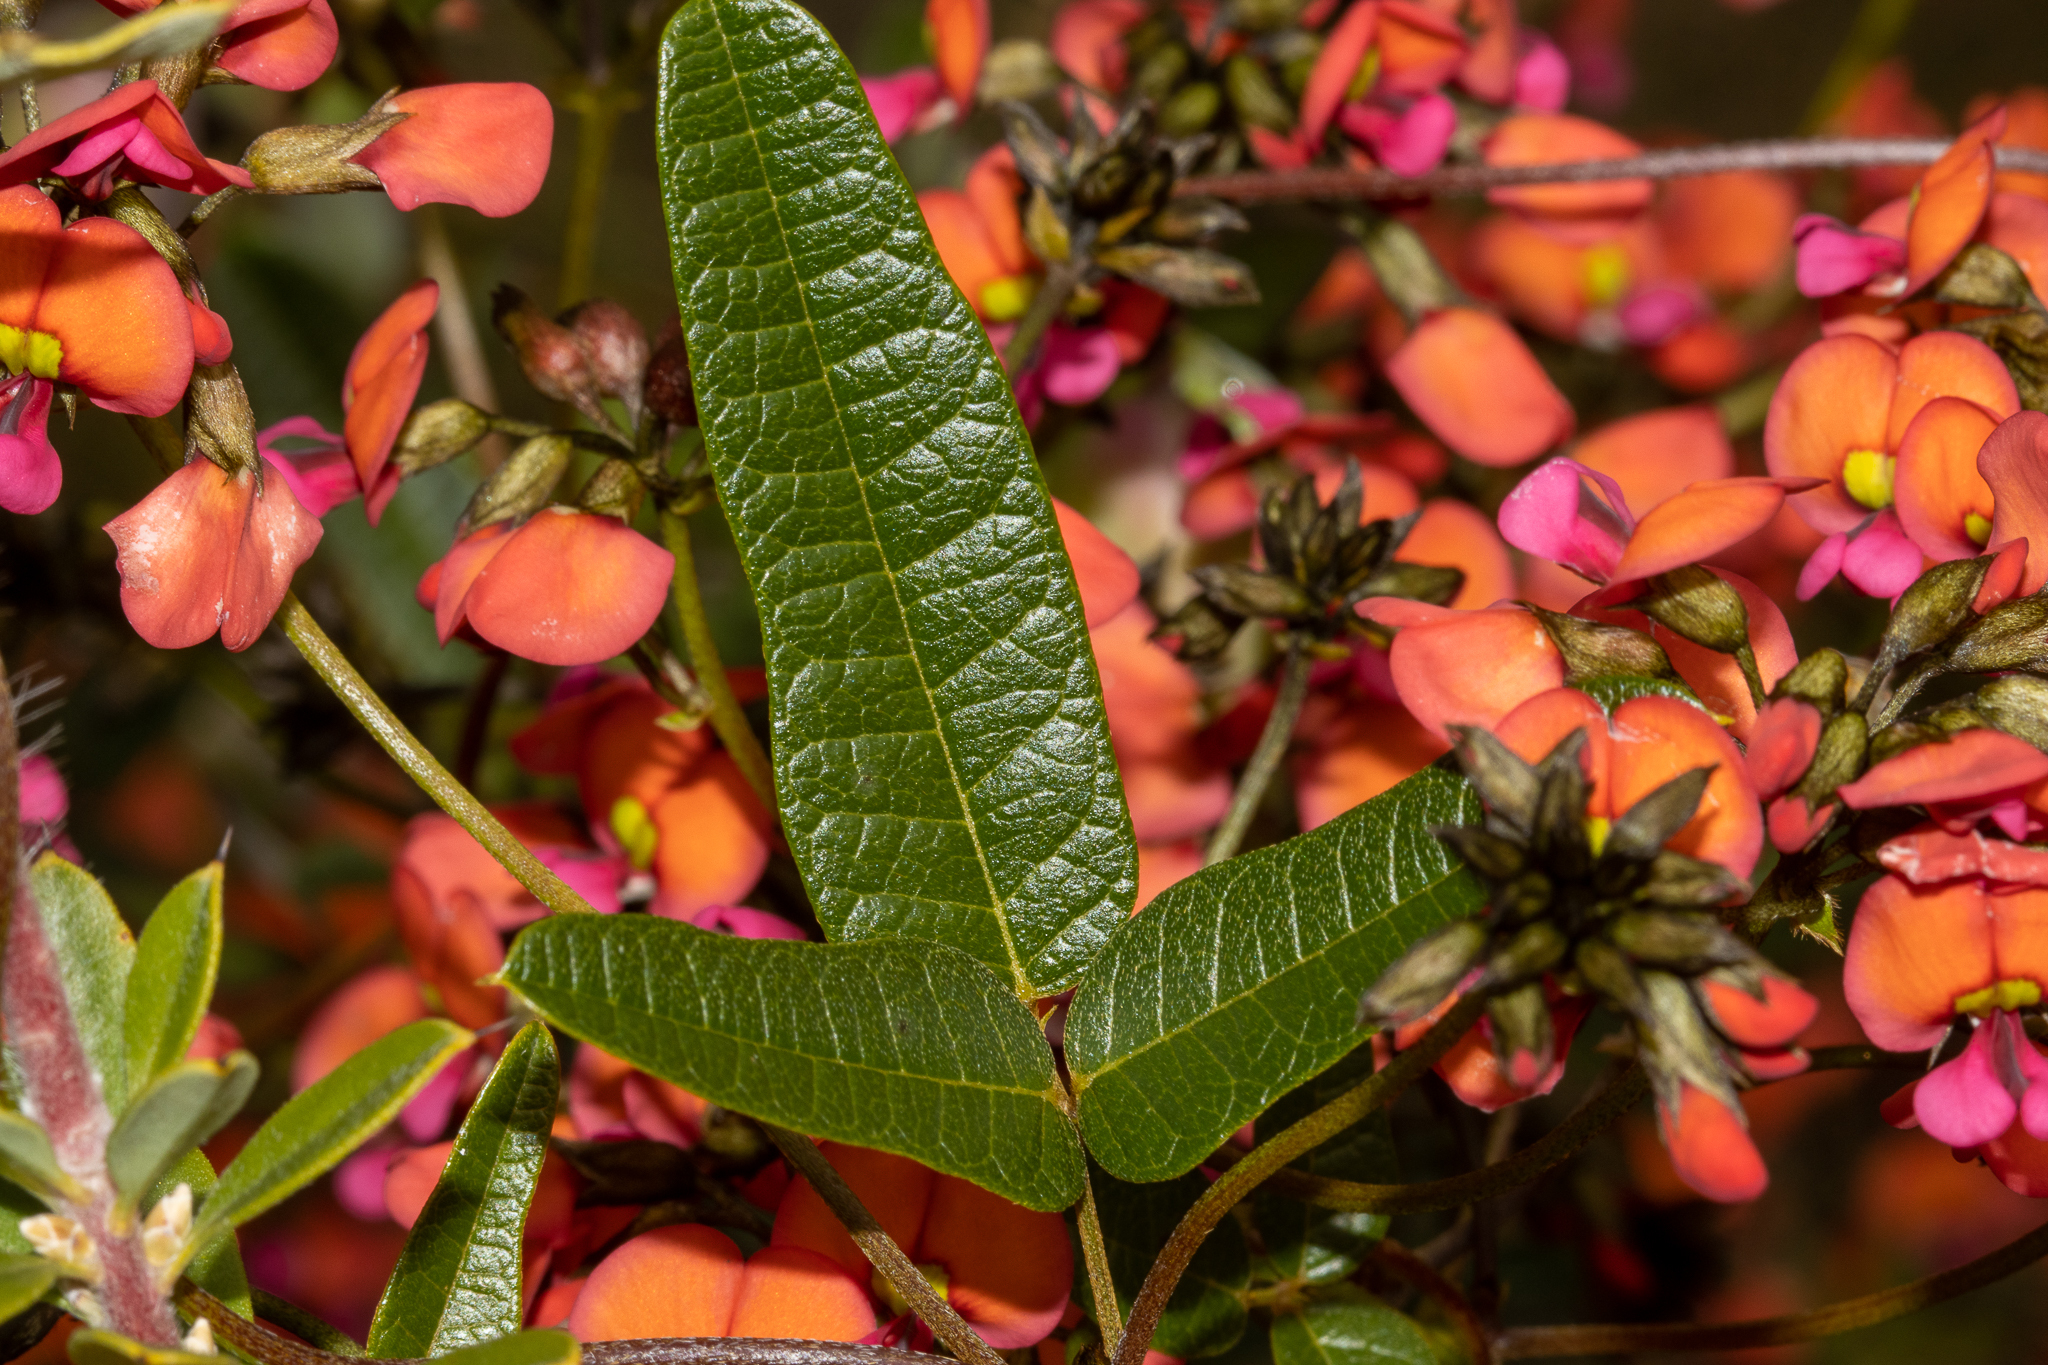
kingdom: Plantae
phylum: Tracheophyta
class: Magnoliopsida
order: Fabales
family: Fabaceae
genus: Kennedia
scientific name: Kennedia coccinea
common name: Coralvine
